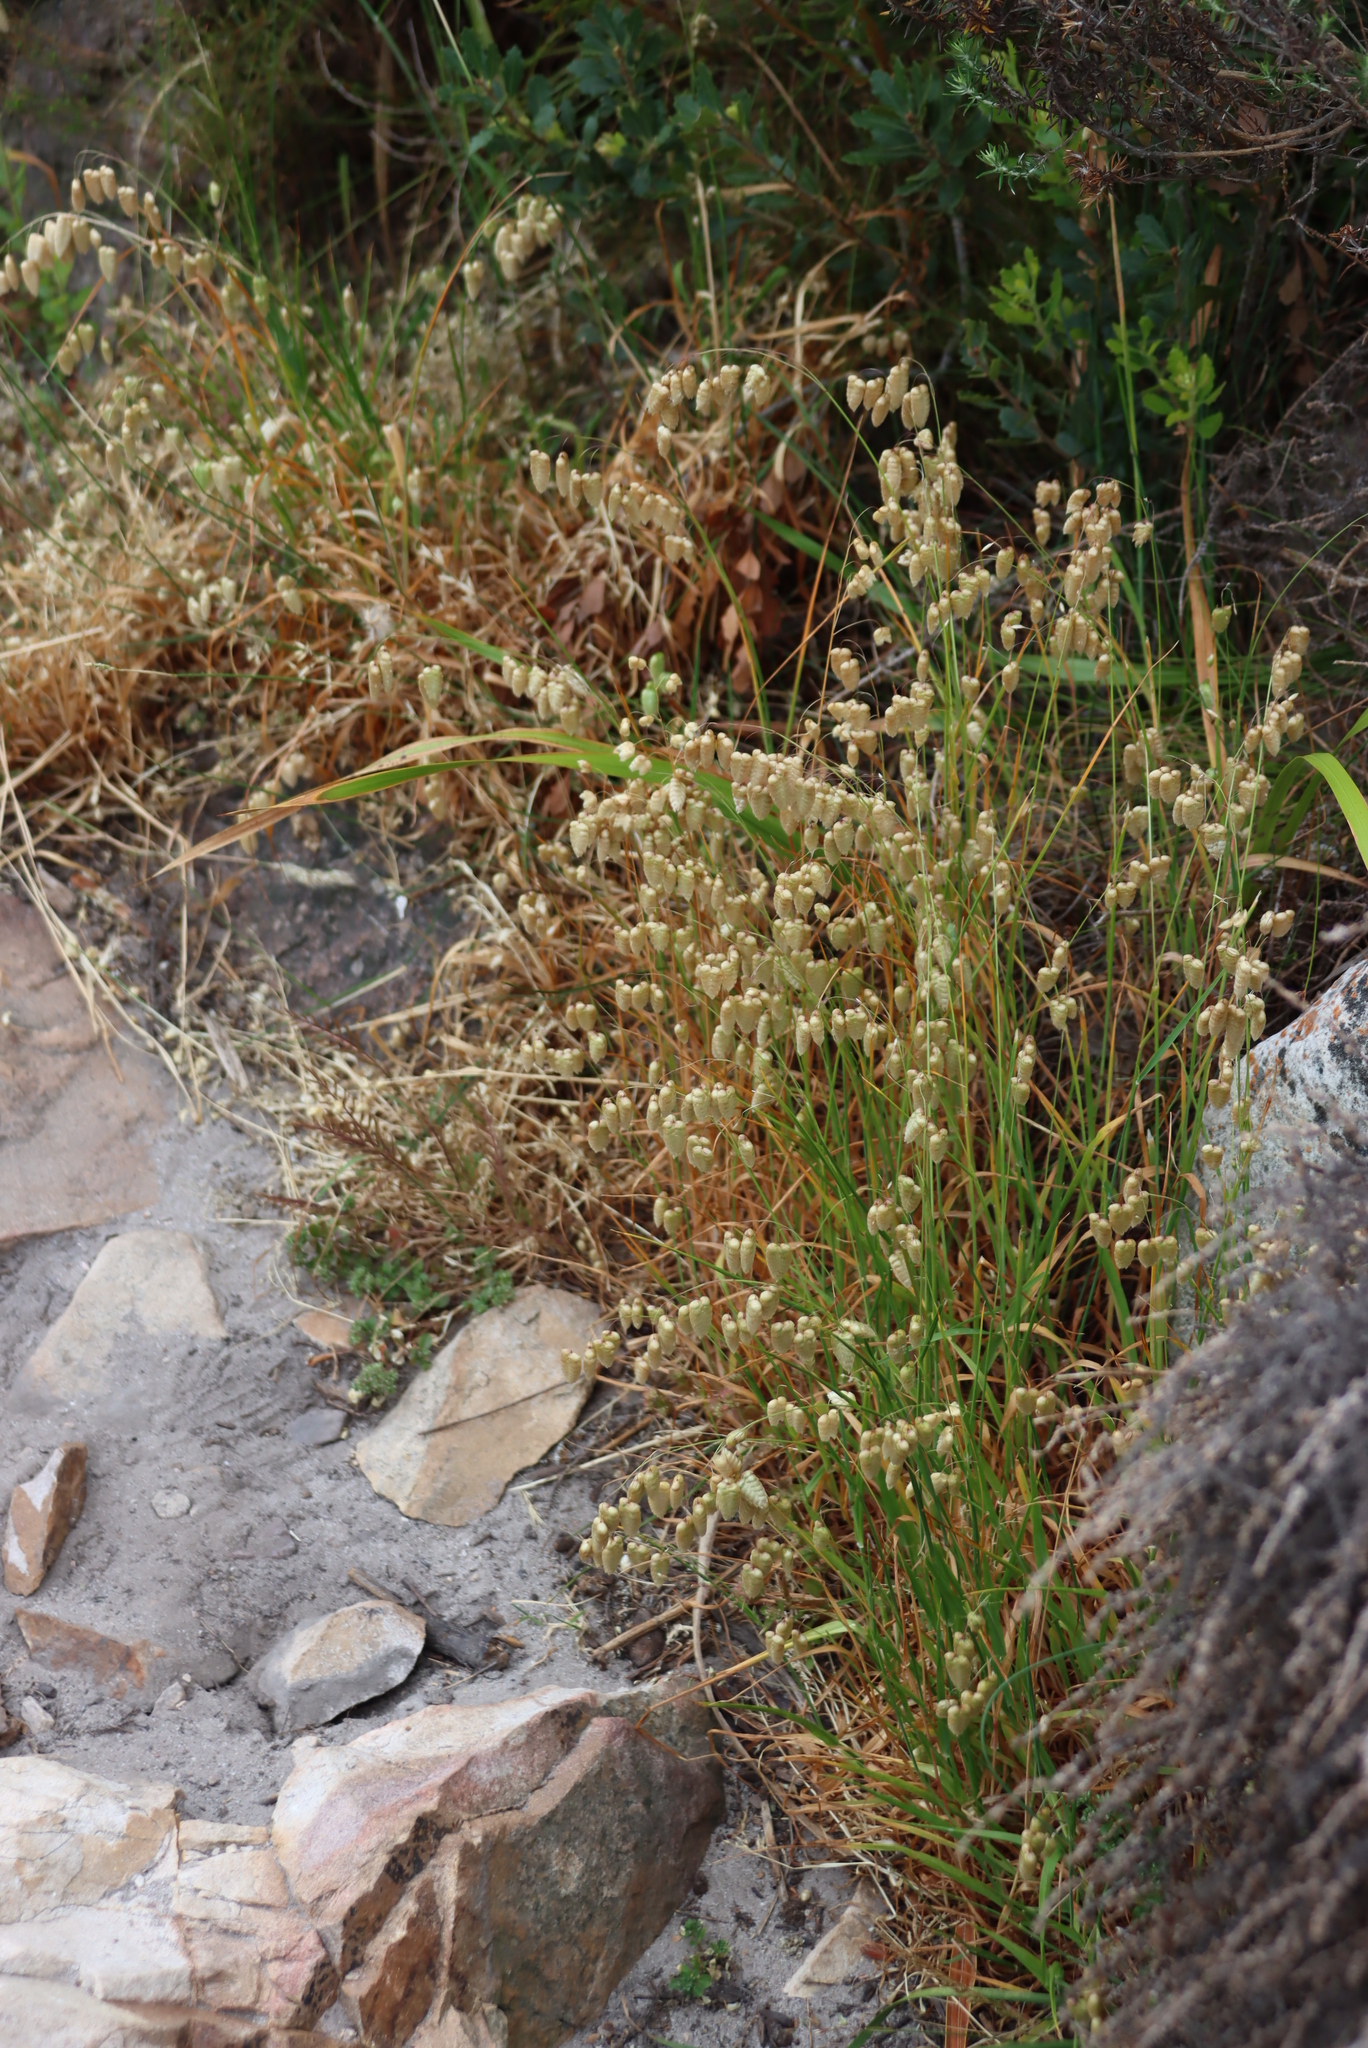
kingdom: Plantae
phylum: Tracheophyta
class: Liliopsida
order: Poales
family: Poaceae
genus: Briza
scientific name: Briza maxima
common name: Big quakinggrass
